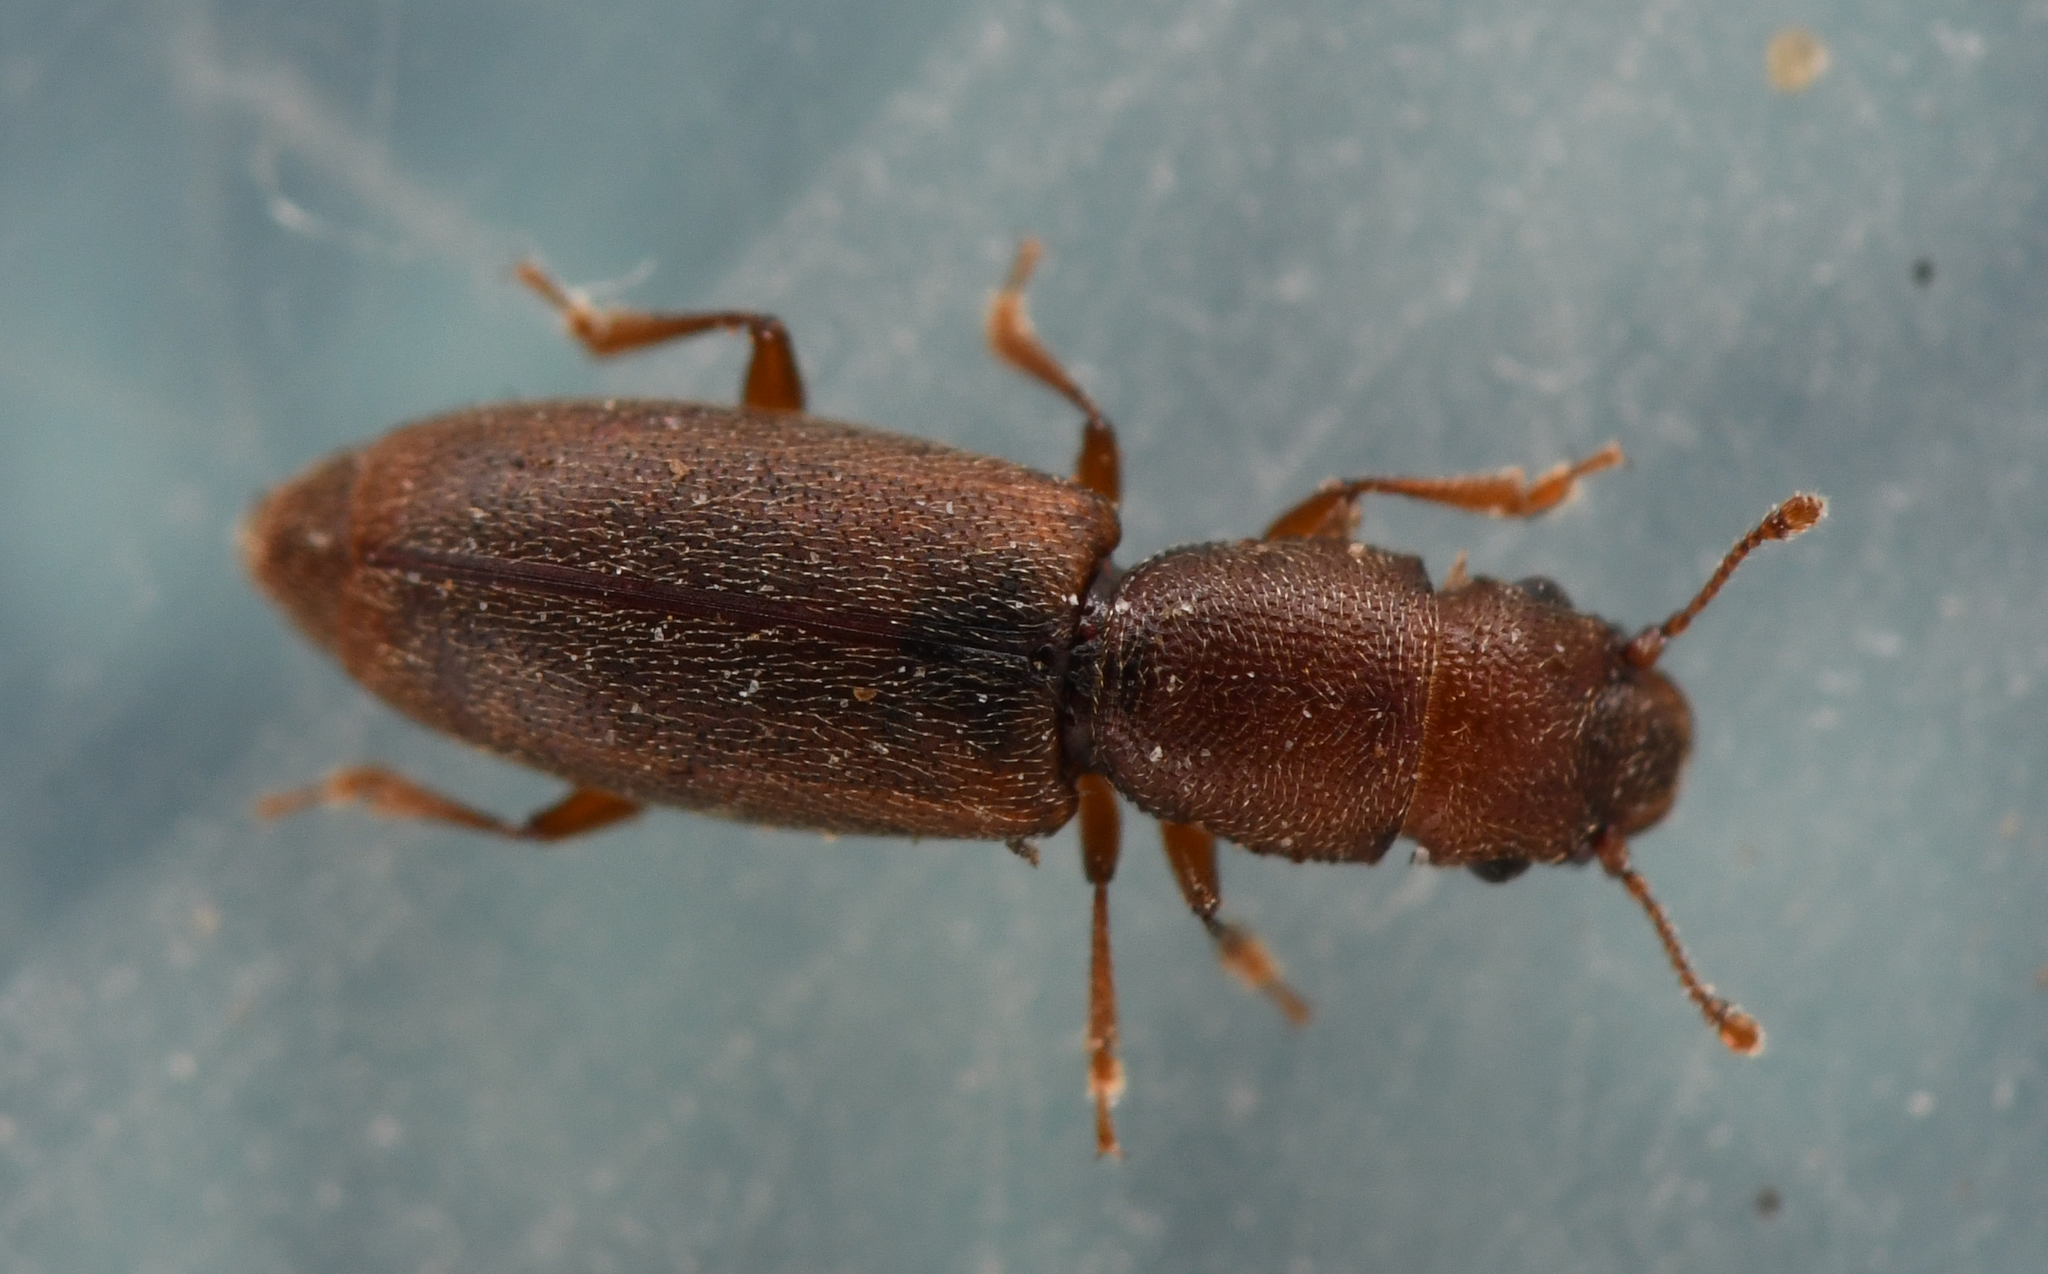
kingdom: Animalia
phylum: Arthropoda
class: Insecta
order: Coleoptera
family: Monotomidae
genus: Phyconomus
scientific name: Phyconomus marinus
